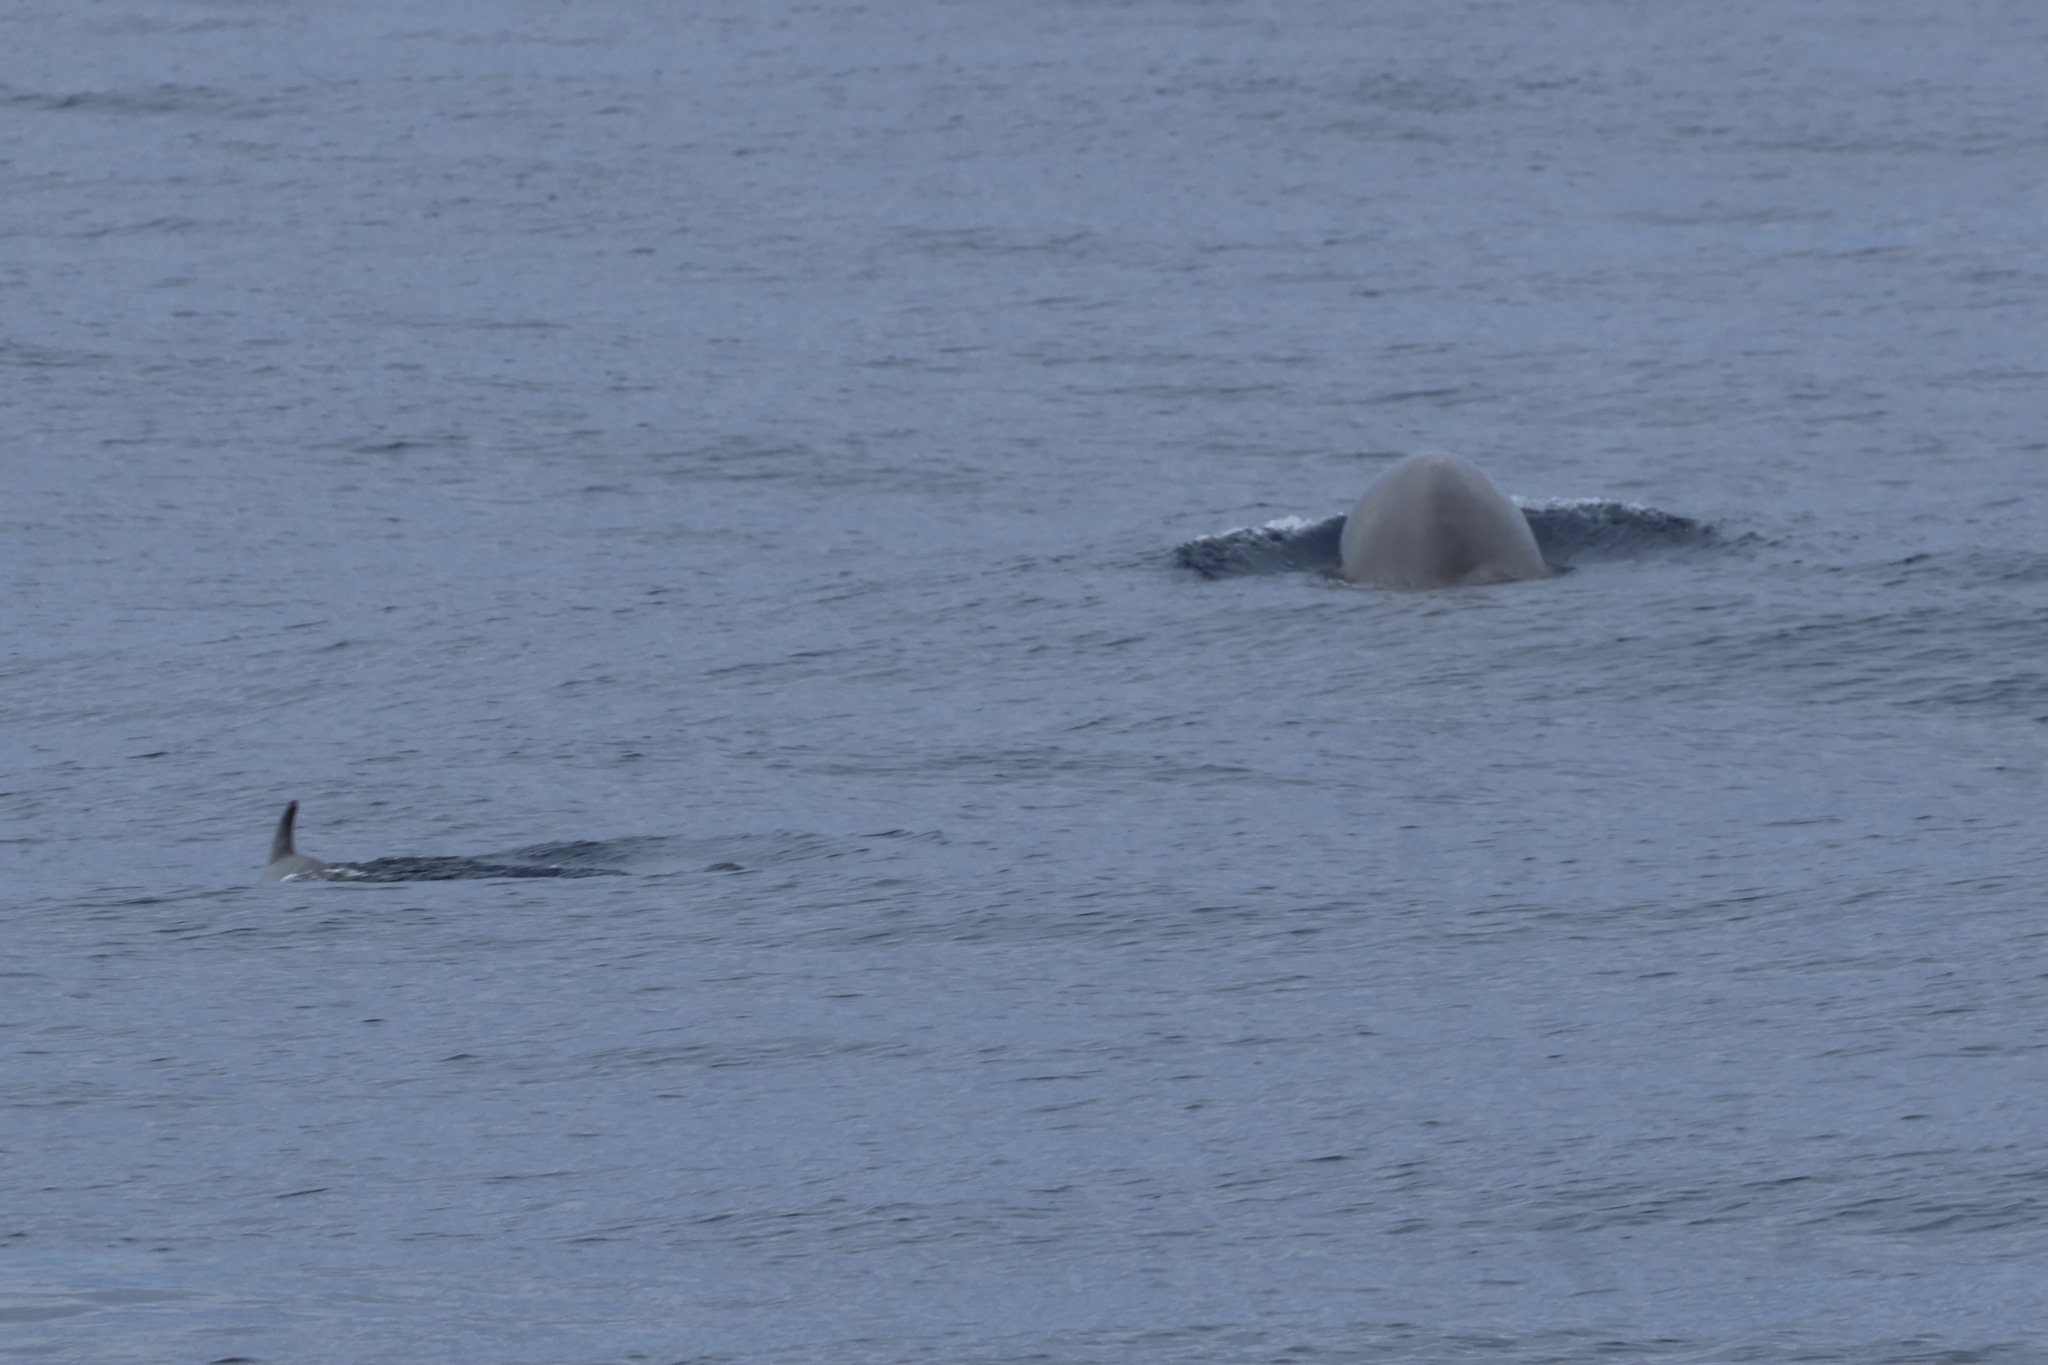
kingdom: Animalia
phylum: Chordata
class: Mammalia
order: Cetacea
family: Hyperoodontidae
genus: Ziphius
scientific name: Ziphius cavirostris
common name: Cuvier's beaked whale
